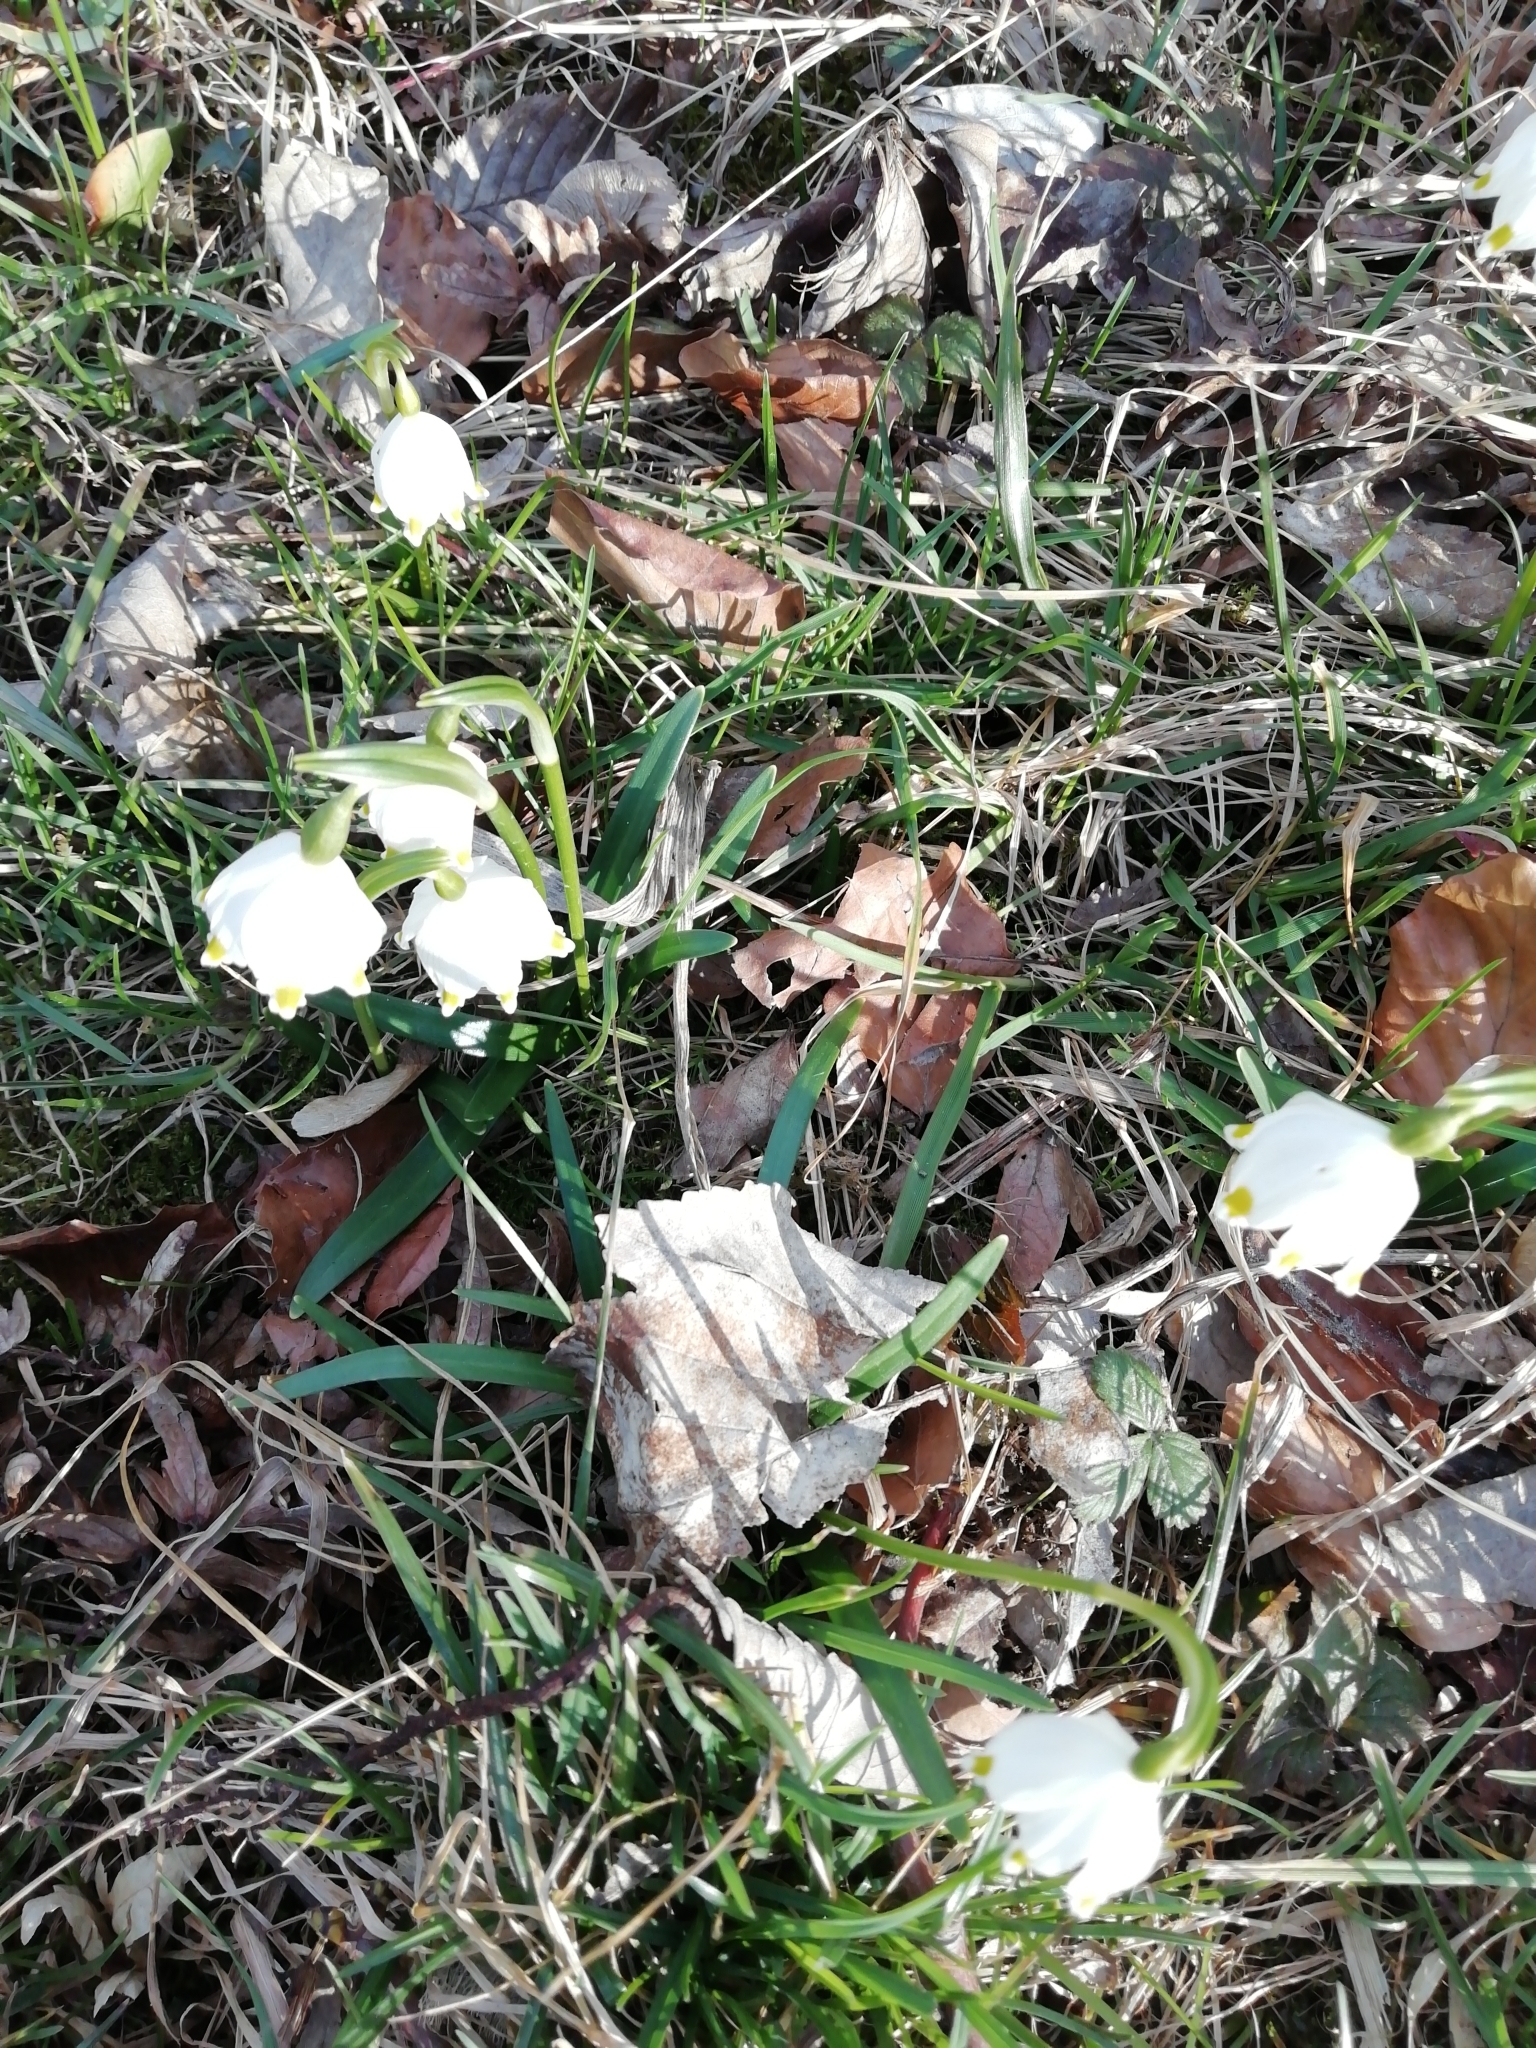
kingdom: Plantae
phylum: Tracheophyta
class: Liliopsida
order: Asparagales
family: Amaryllidaceae
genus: Leucojum
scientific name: Leucojum vernum
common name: Spring snowflake
